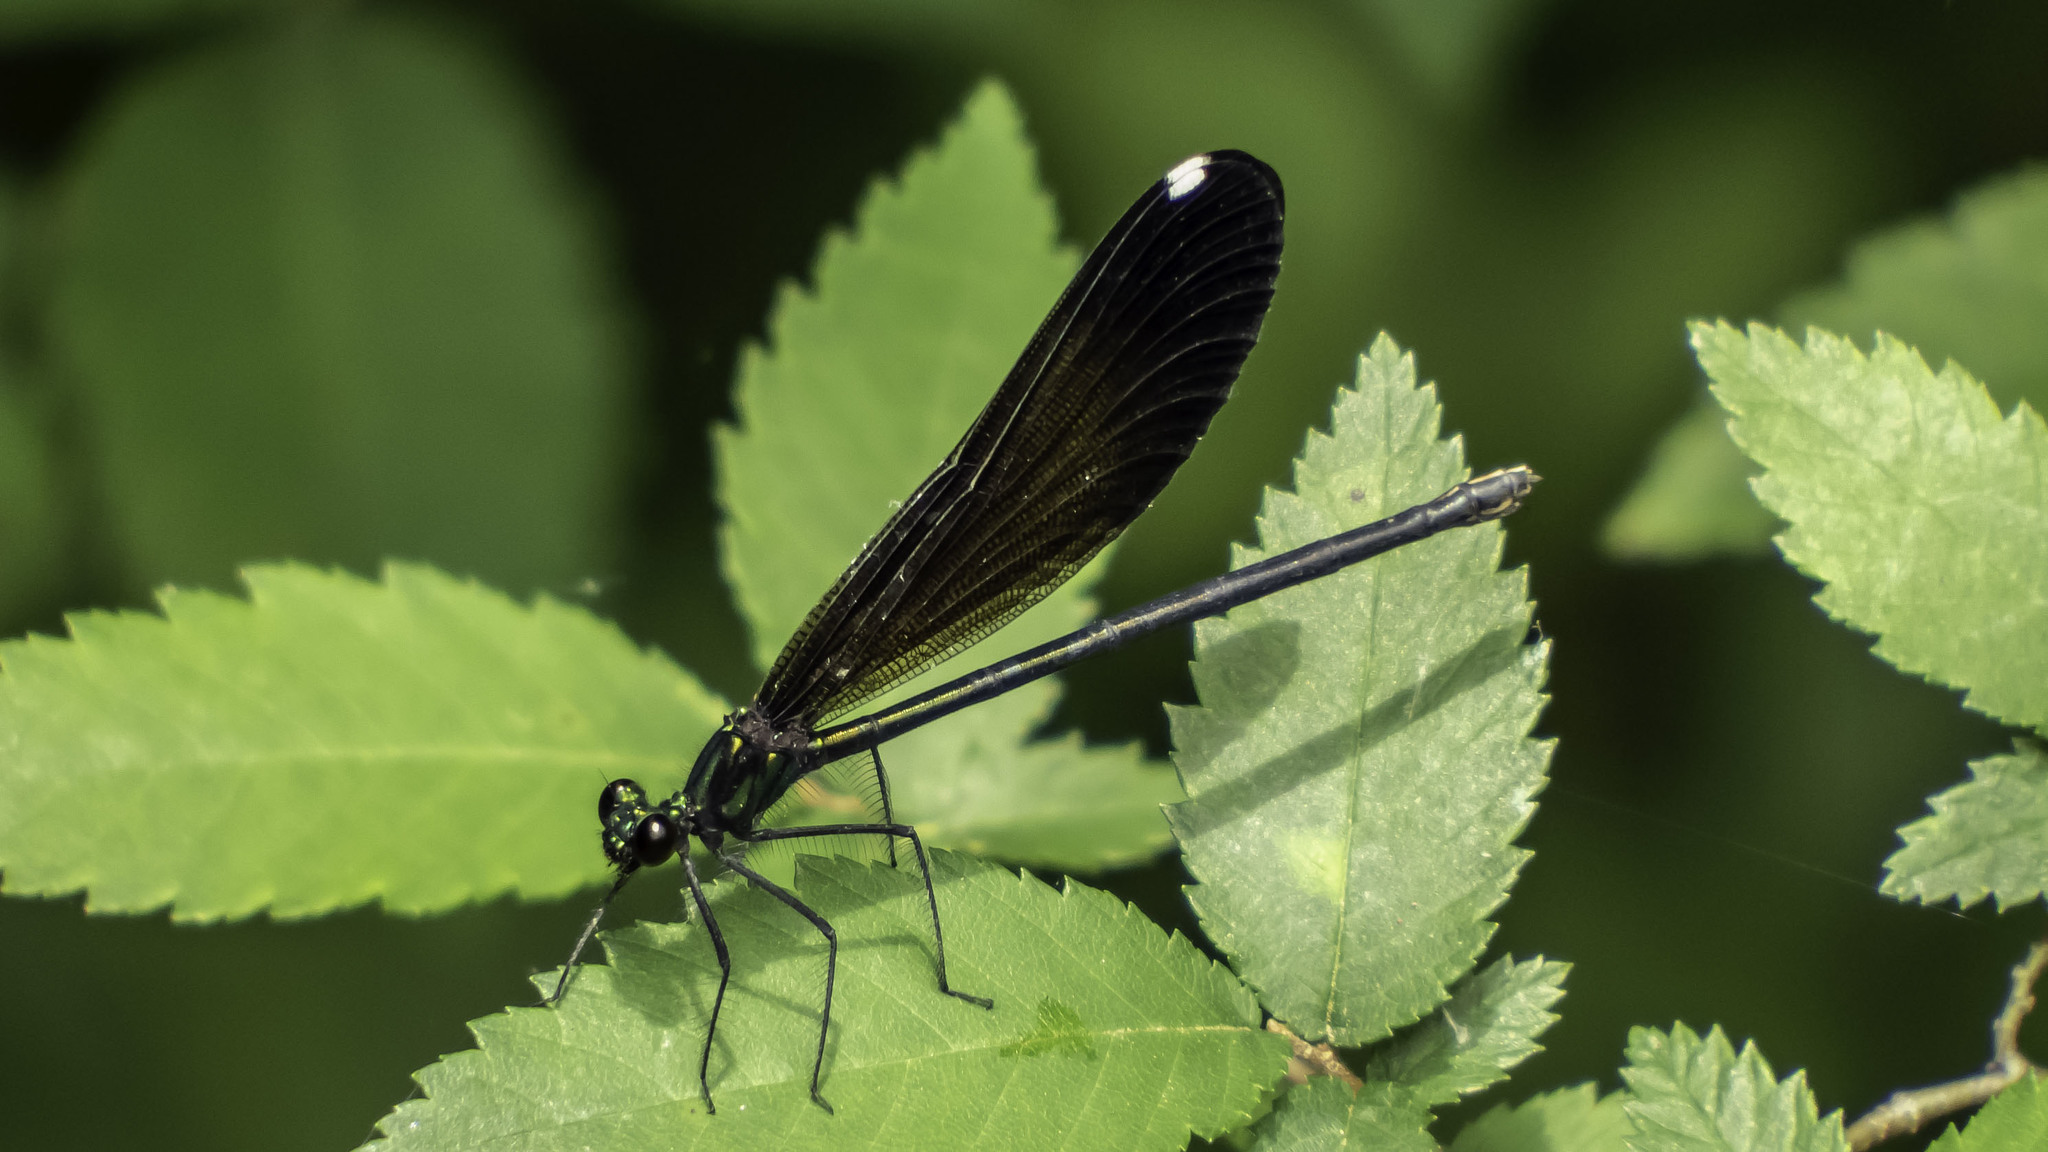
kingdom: Animalia
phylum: Arthropoda
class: Insecta
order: Odonata
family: Calopterygidae
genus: Calopteryx
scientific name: Calopteryx maculata
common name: Ebony jewelwing
